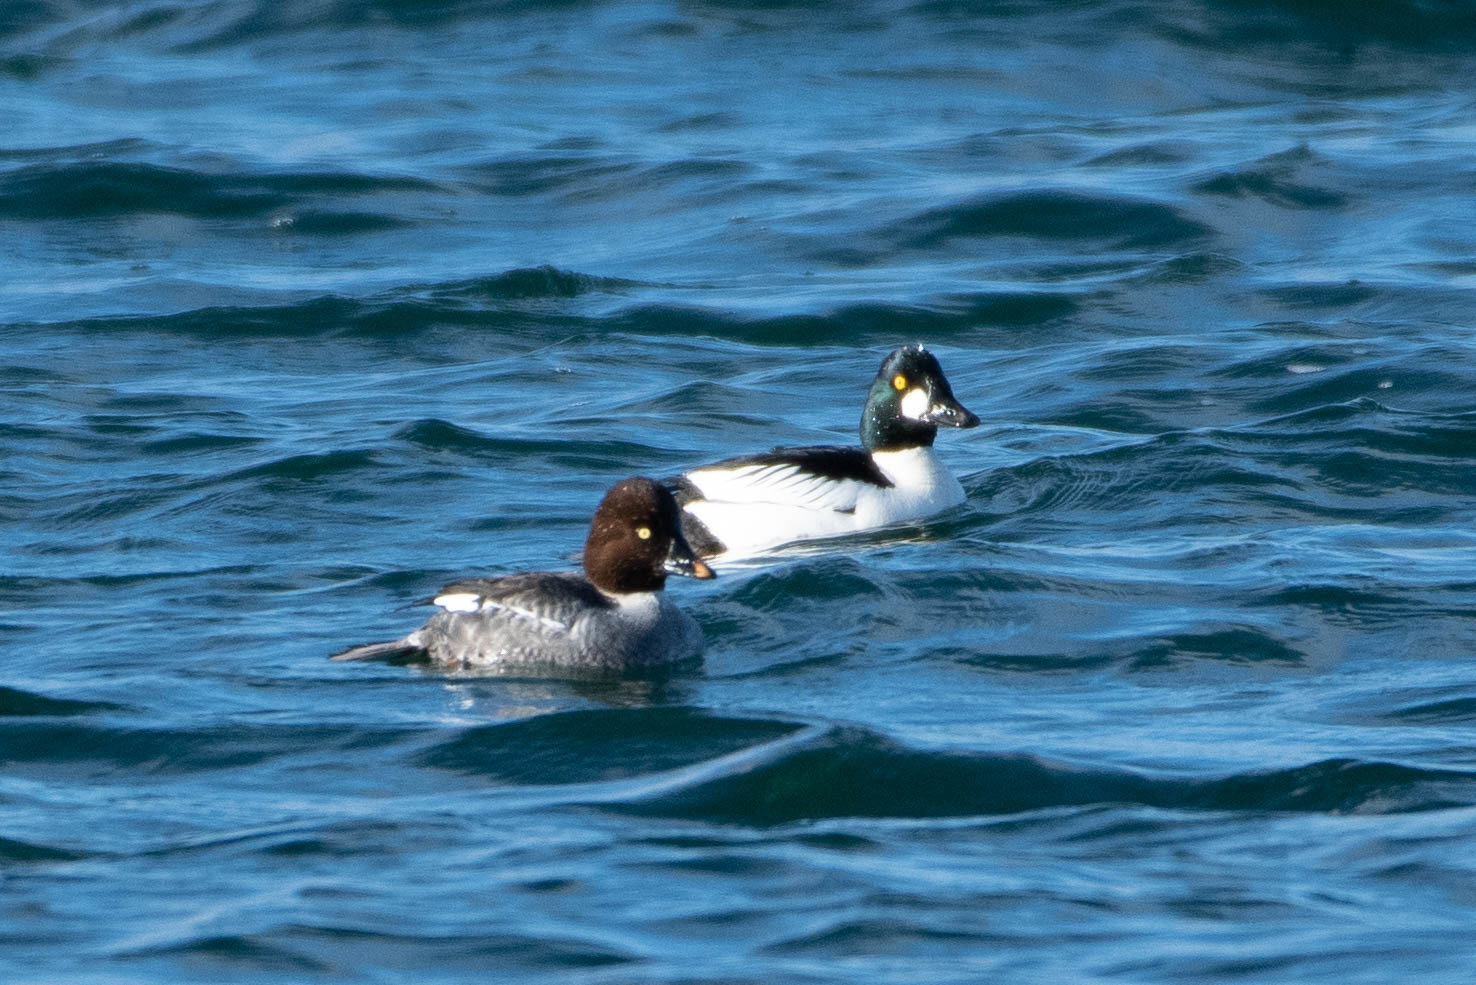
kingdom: Animalia
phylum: Chordata
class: Aves
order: Anseriformes
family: Anatidae
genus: Bucephala
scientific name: Bucephala clangula
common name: Common goldeneye
